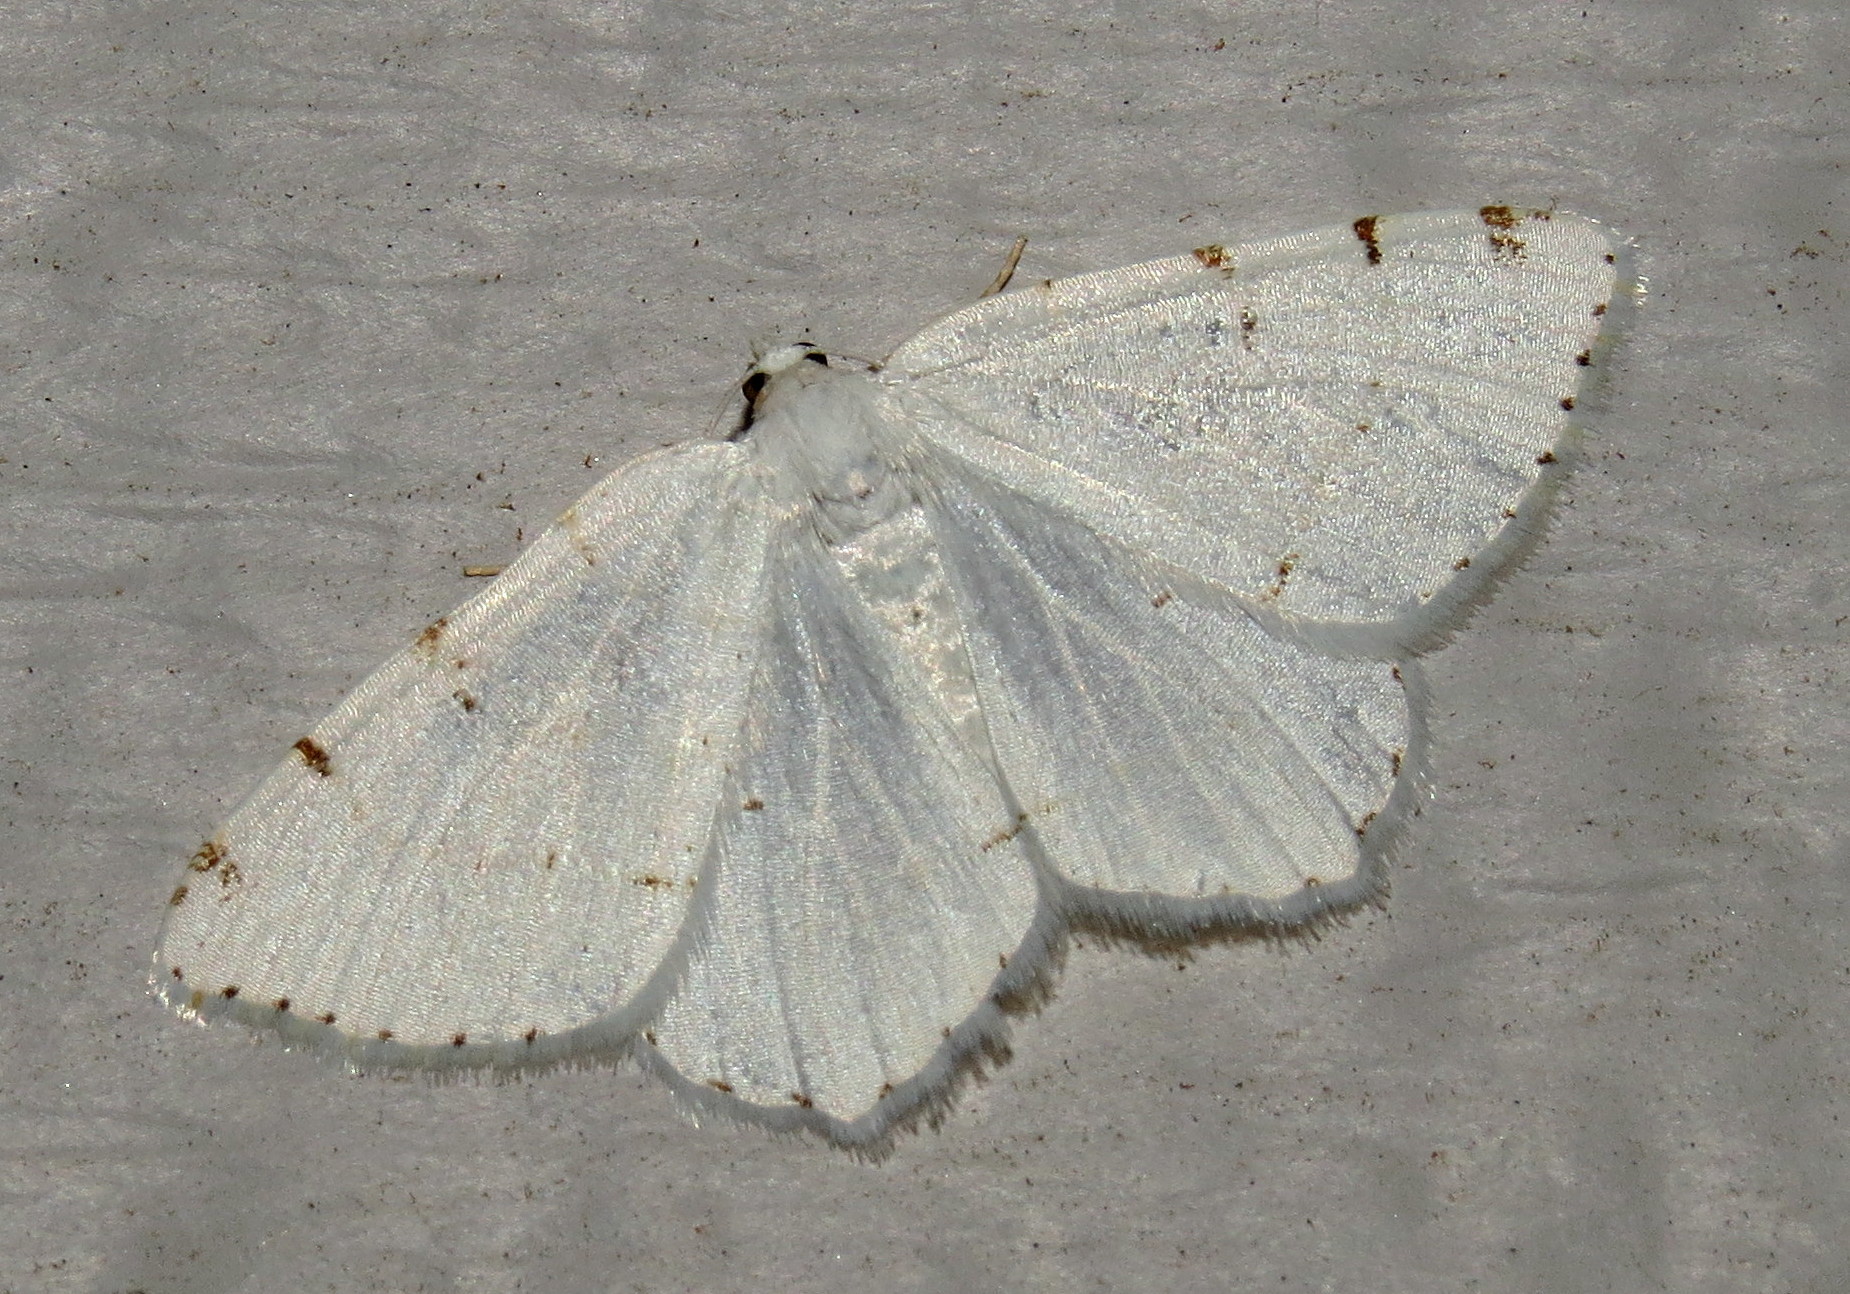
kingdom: Animalia
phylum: Arthropoda
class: Insecta
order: Lepidoptera
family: Geometridae
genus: Macaria
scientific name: Macaria pustularia
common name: Lesser maple spanworm moth
